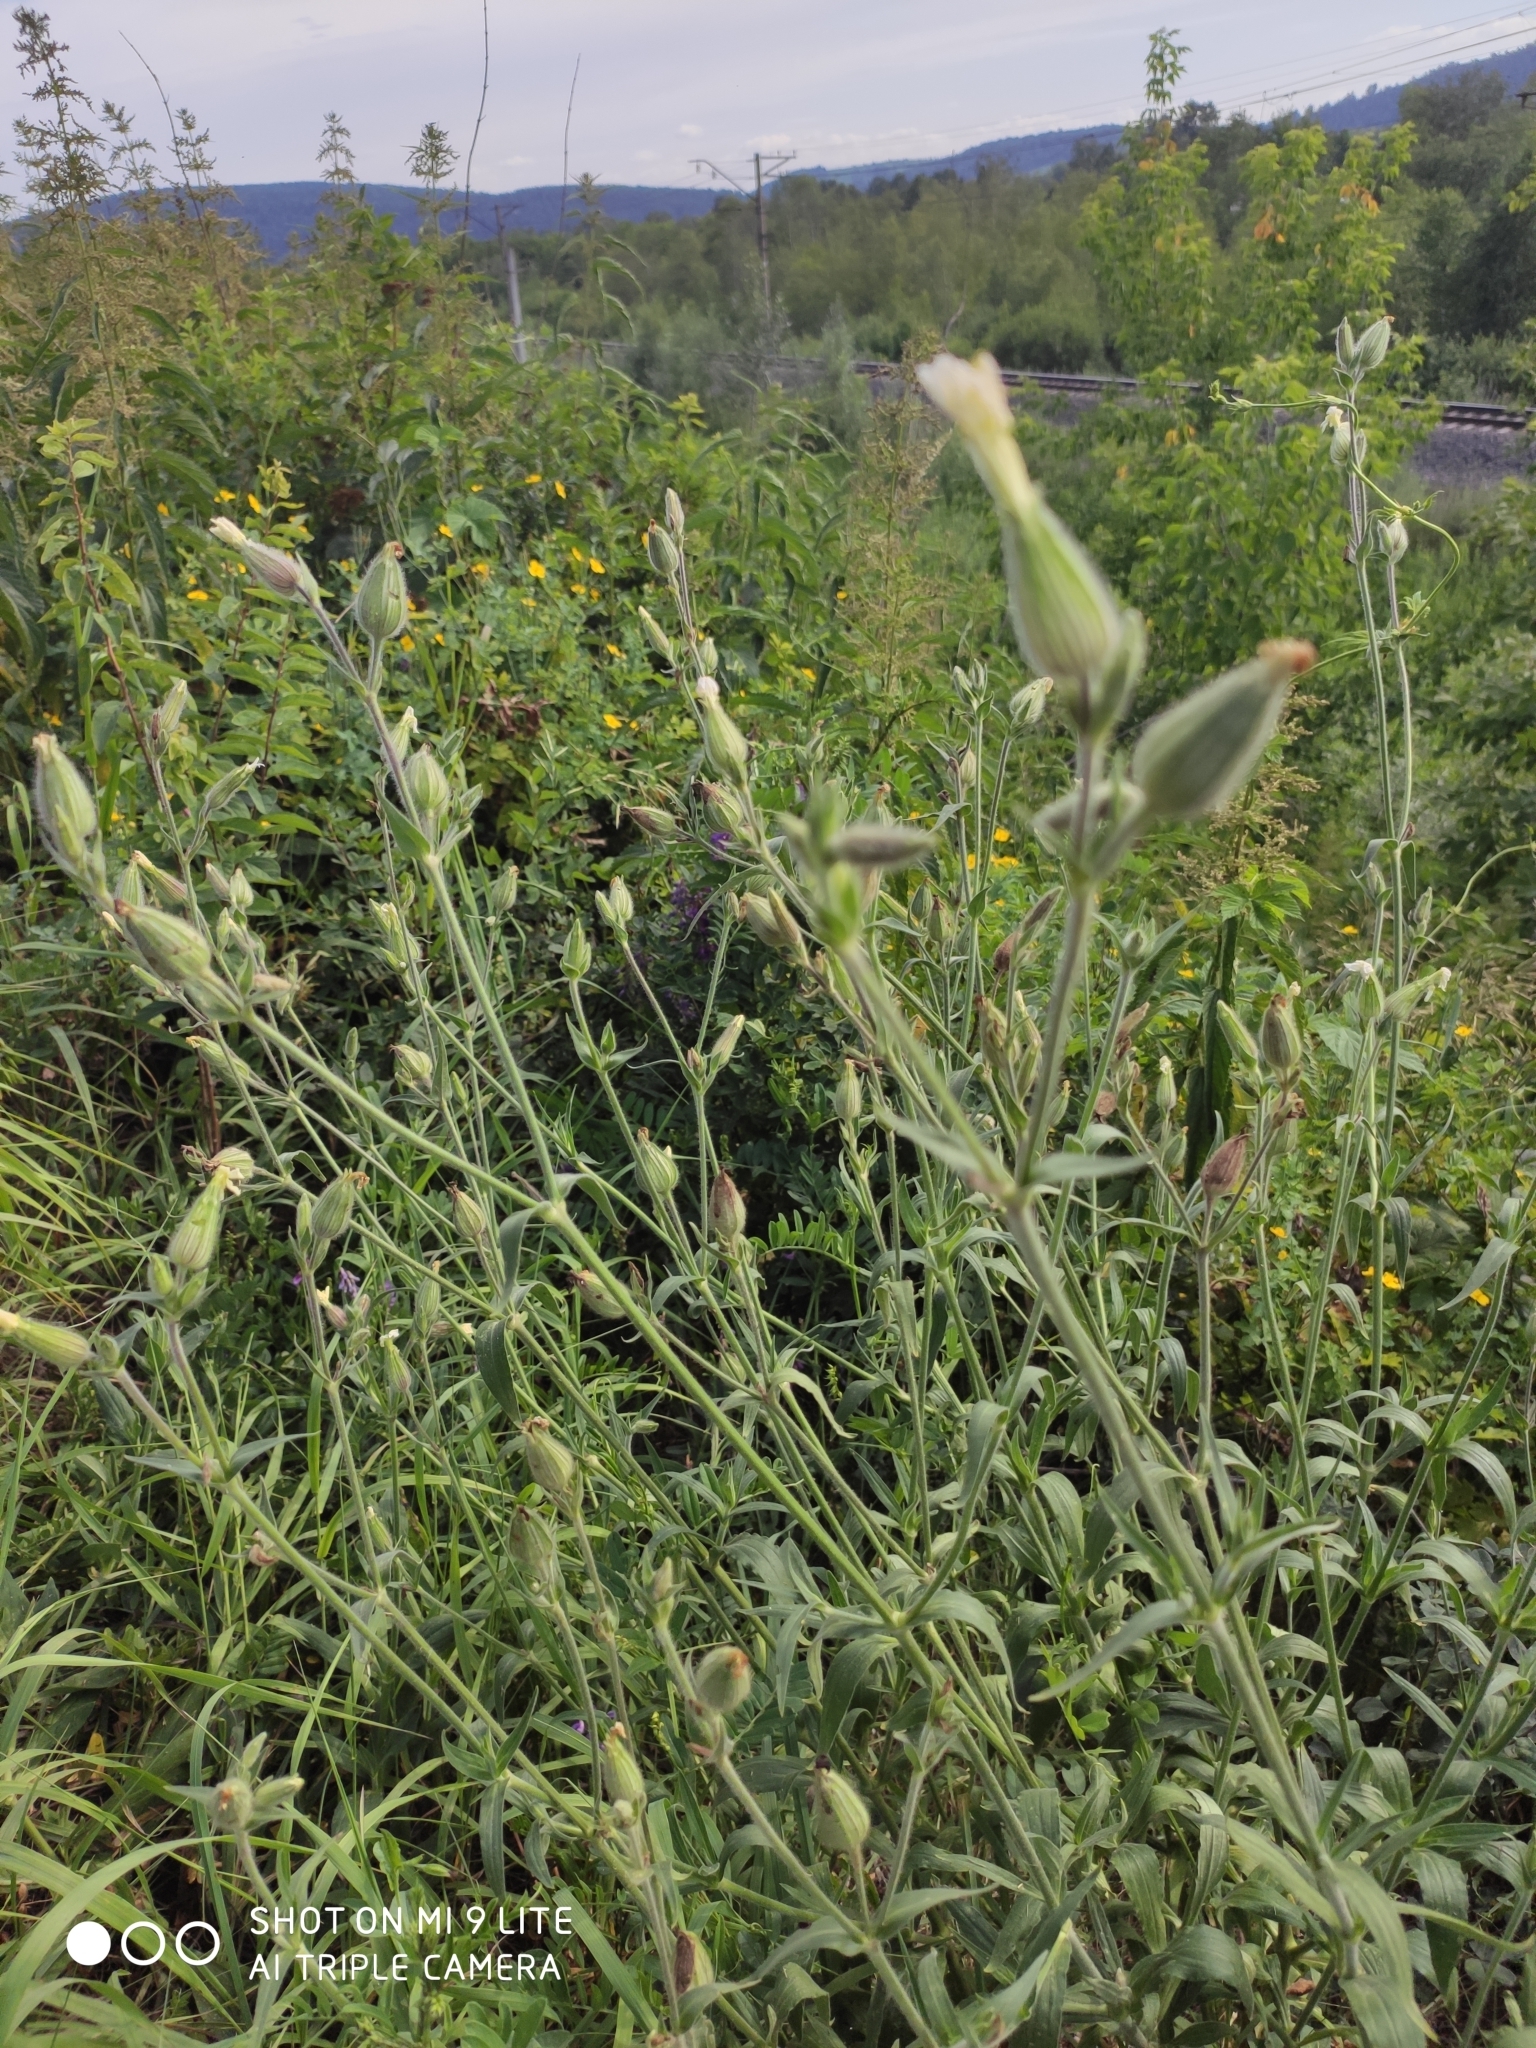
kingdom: Plantae
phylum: Tracheophyta
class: Magnoliopsida
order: Caryophyllales
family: Caryophyllaceae
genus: Silene
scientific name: Silene latifolia
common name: White campion
